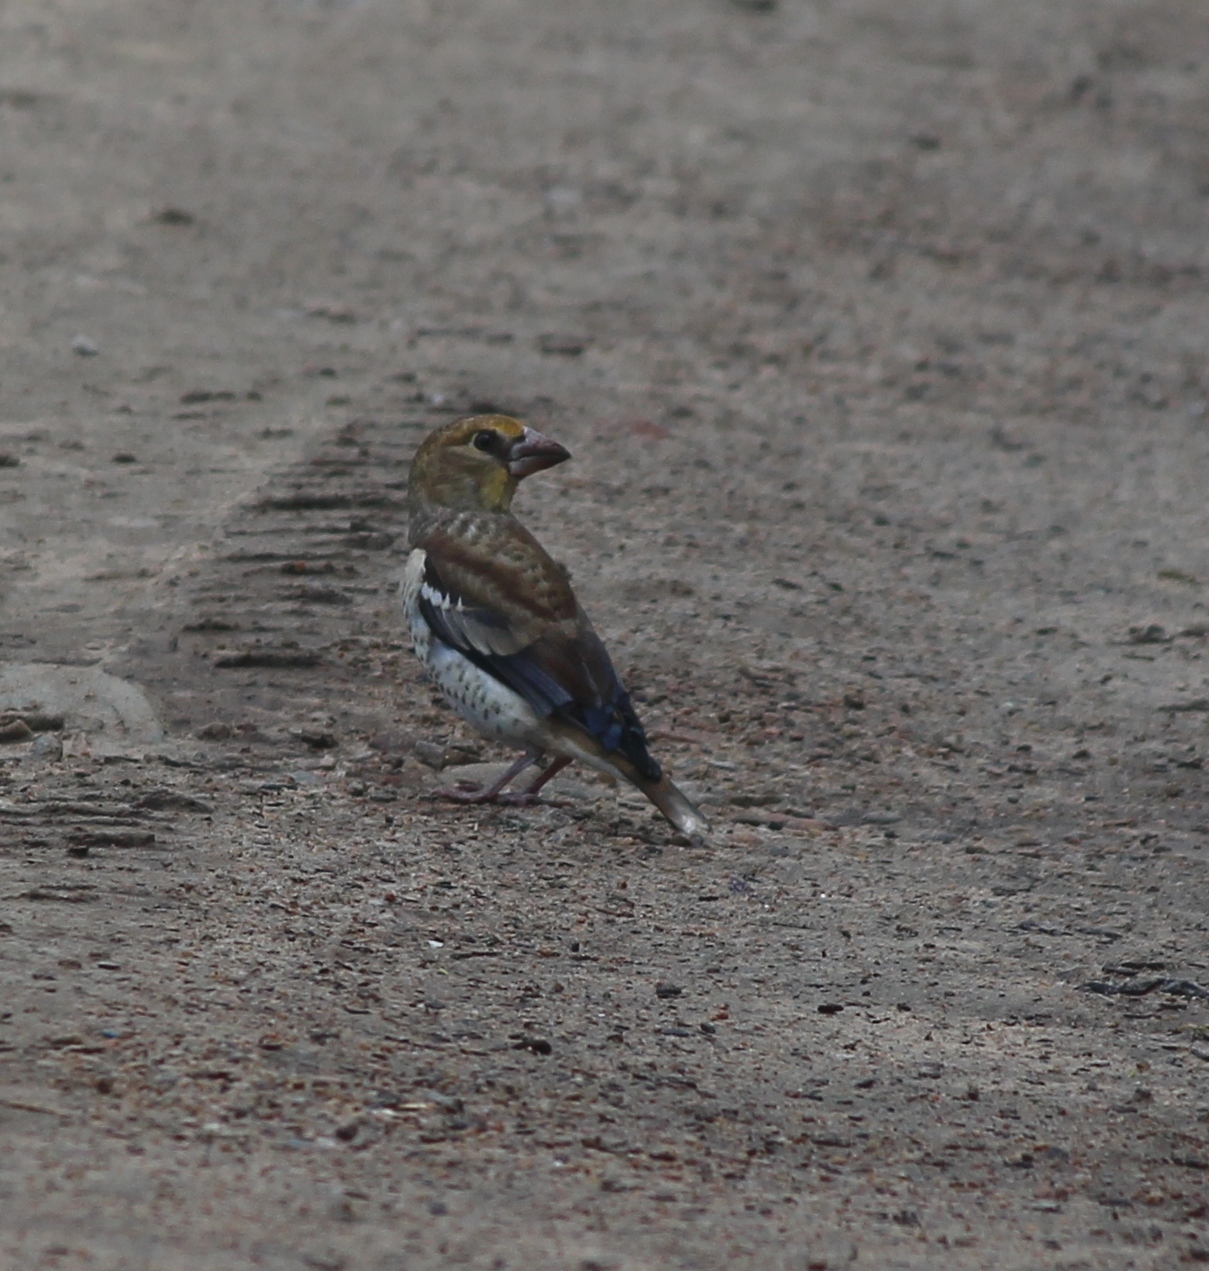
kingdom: Animalia
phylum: Chordata
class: Aves
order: Passeriformes
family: Fringillidae
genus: Coccothraustes
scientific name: Coccothraustes coccothraustes
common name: Hawfinch
